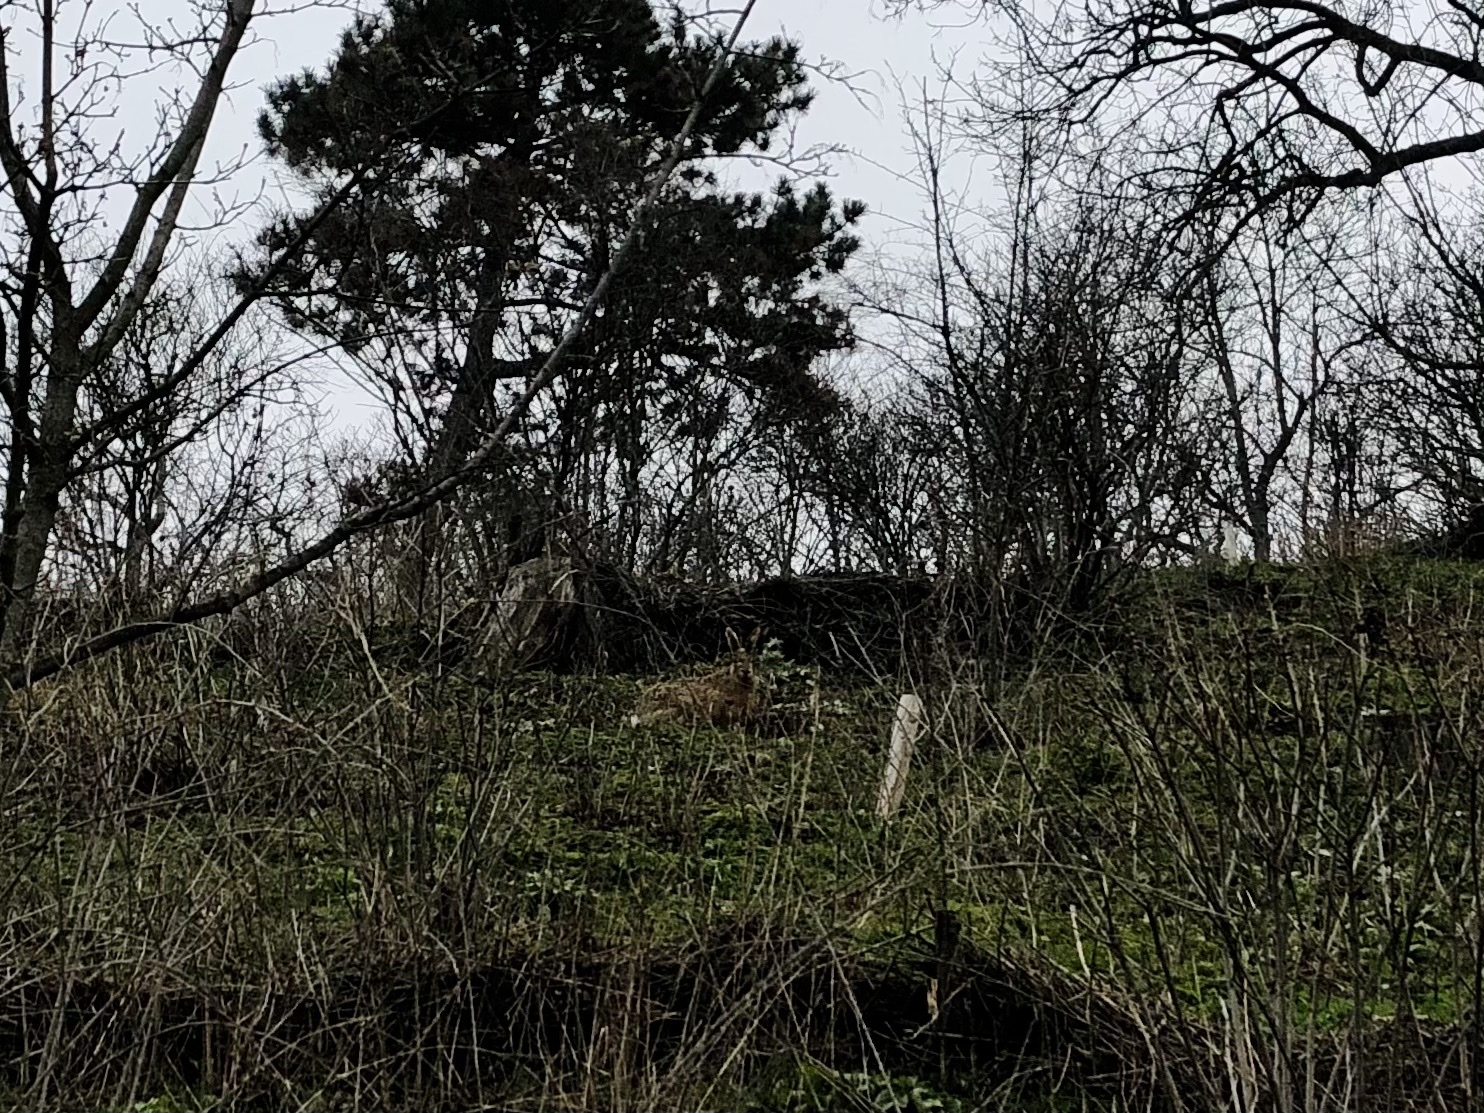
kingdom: Animalia
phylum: Chordata
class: Mammalia
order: Lagomorpha
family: Leporidae
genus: Lepus
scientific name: Lepus europaeus
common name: European hare
